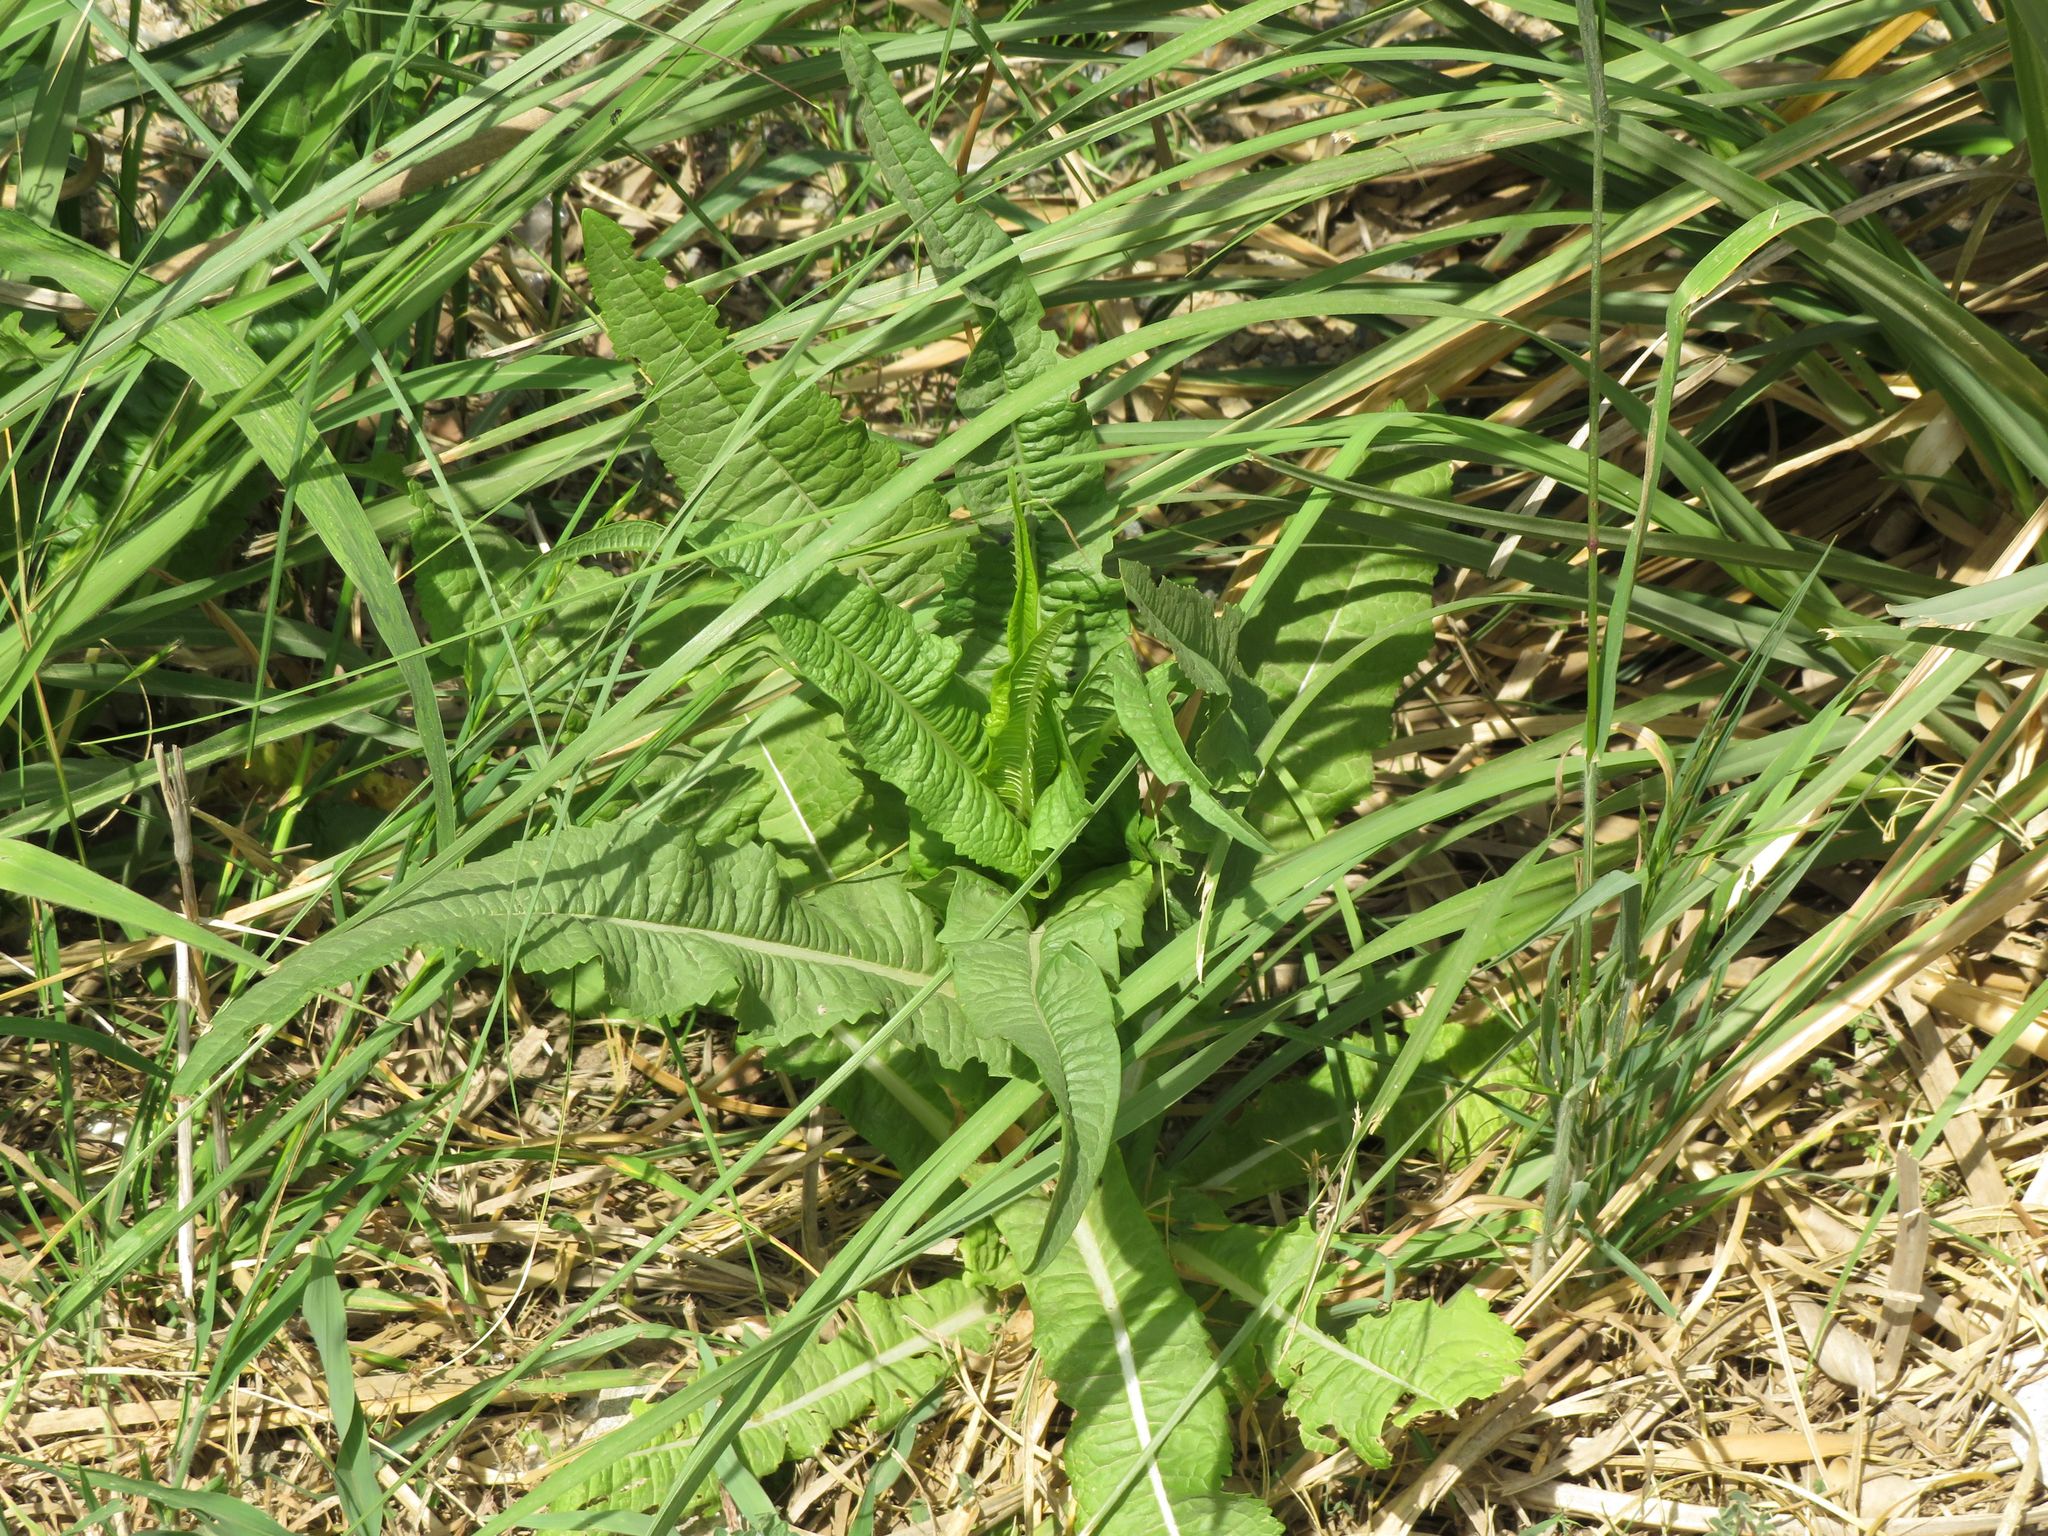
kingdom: Plantae
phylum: Tracheophyta
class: Magnoliopsida
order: Dipsacales
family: Caprifoliaceae
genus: Dipsacus
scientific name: Dipsacus fullonum
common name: Teasel
